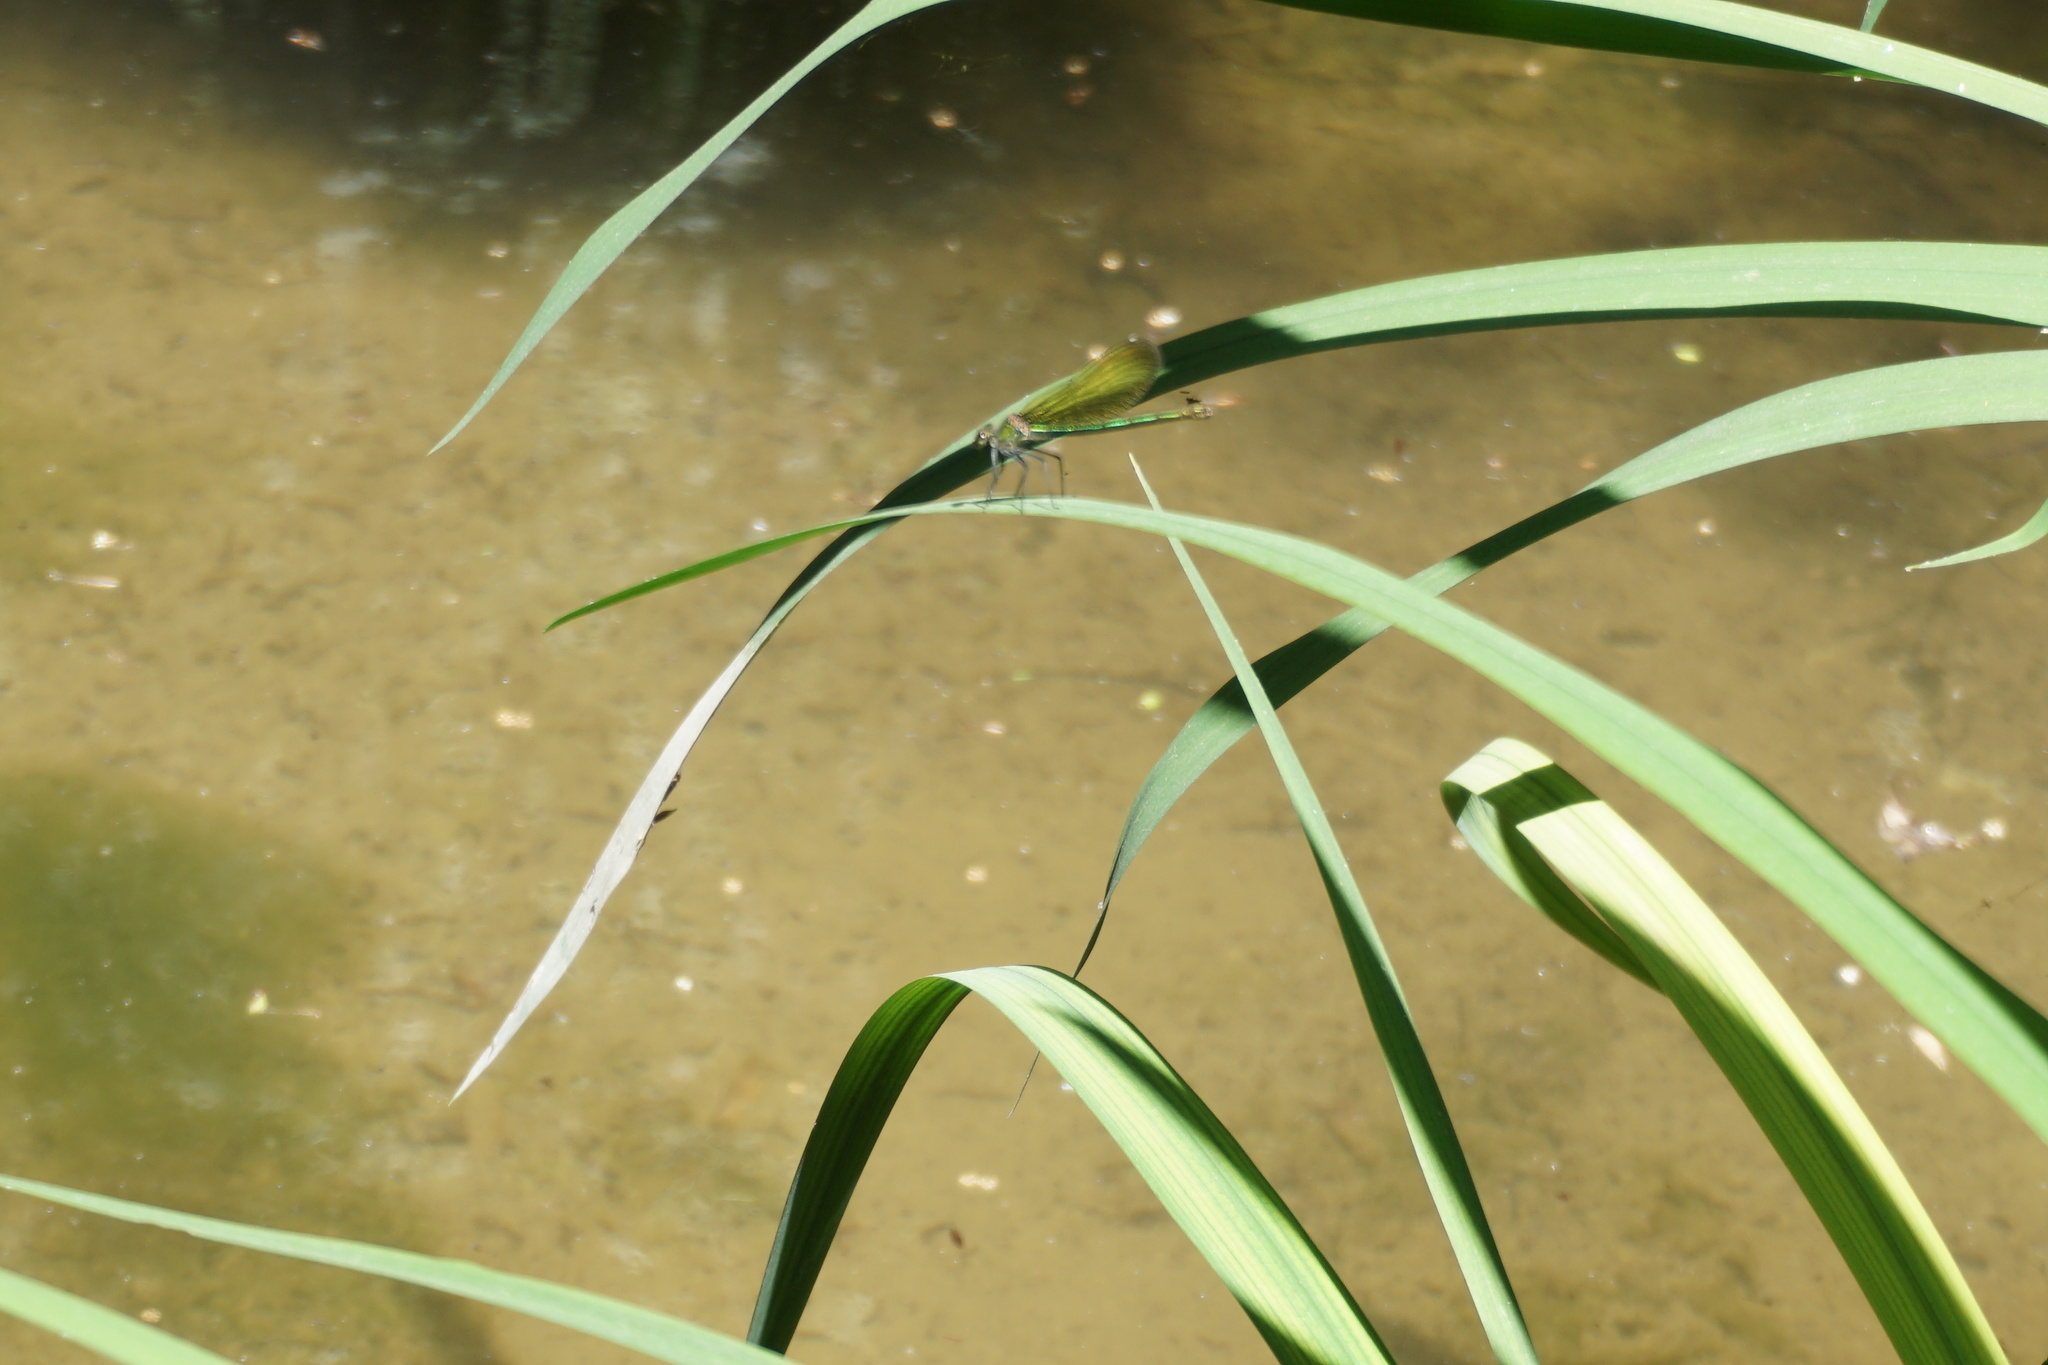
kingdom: Animalia
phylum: Arthropoda
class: Insecta
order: Odonata
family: Calopterygidae
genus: Calopteryx
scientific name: Calopteryx splendens
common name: Banded demoiselle
